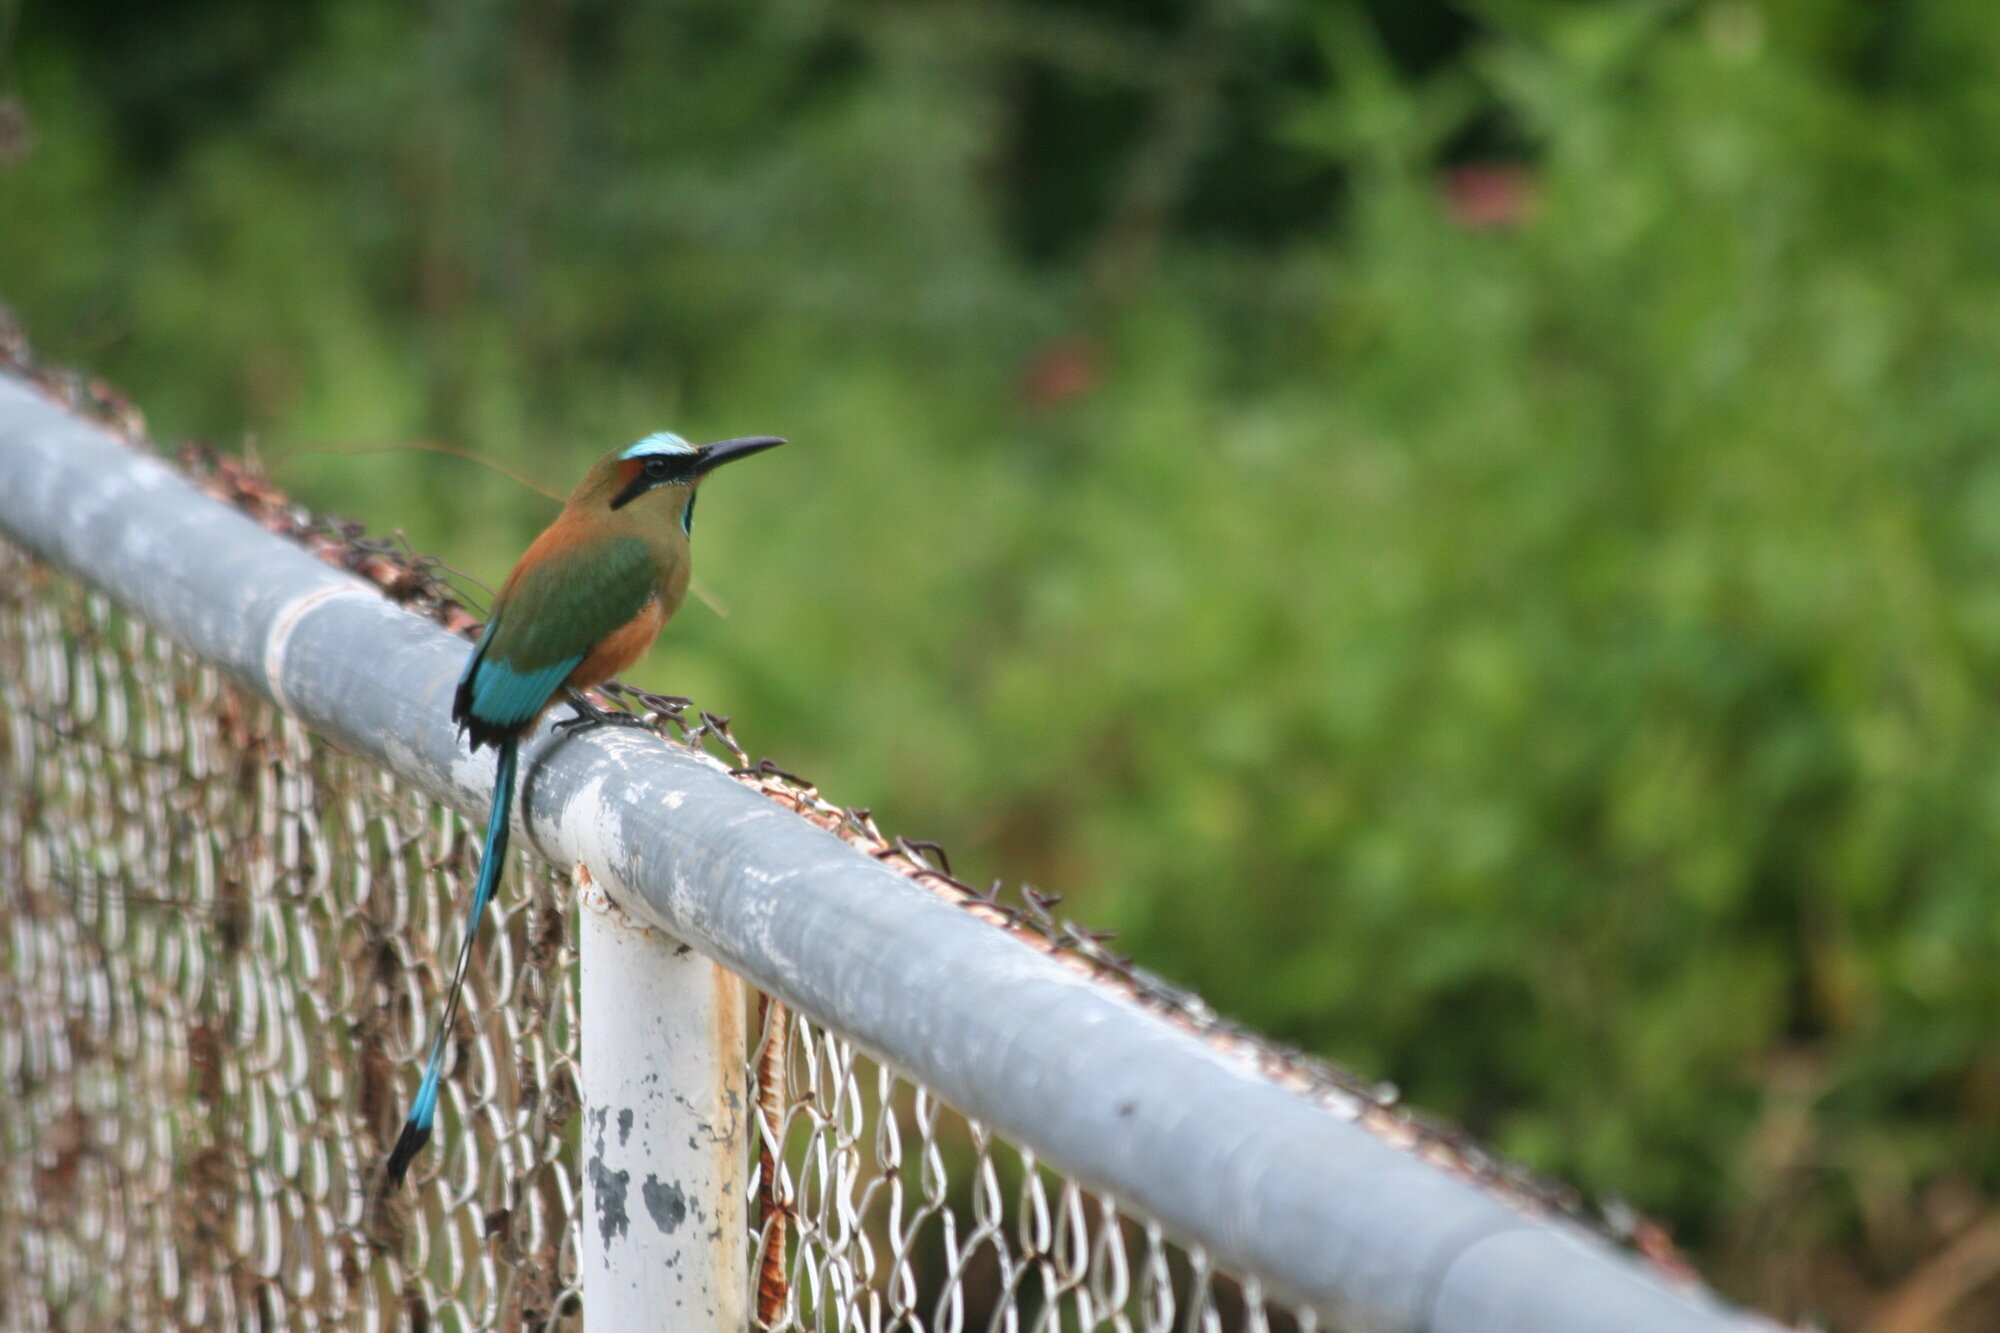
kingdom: Animalia
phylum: Chordata
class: Aves
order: Coraciiformes
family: Momotidae
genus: Eumomota
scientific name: Eumomota superciliosa
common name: Turquoise-browed motmot
